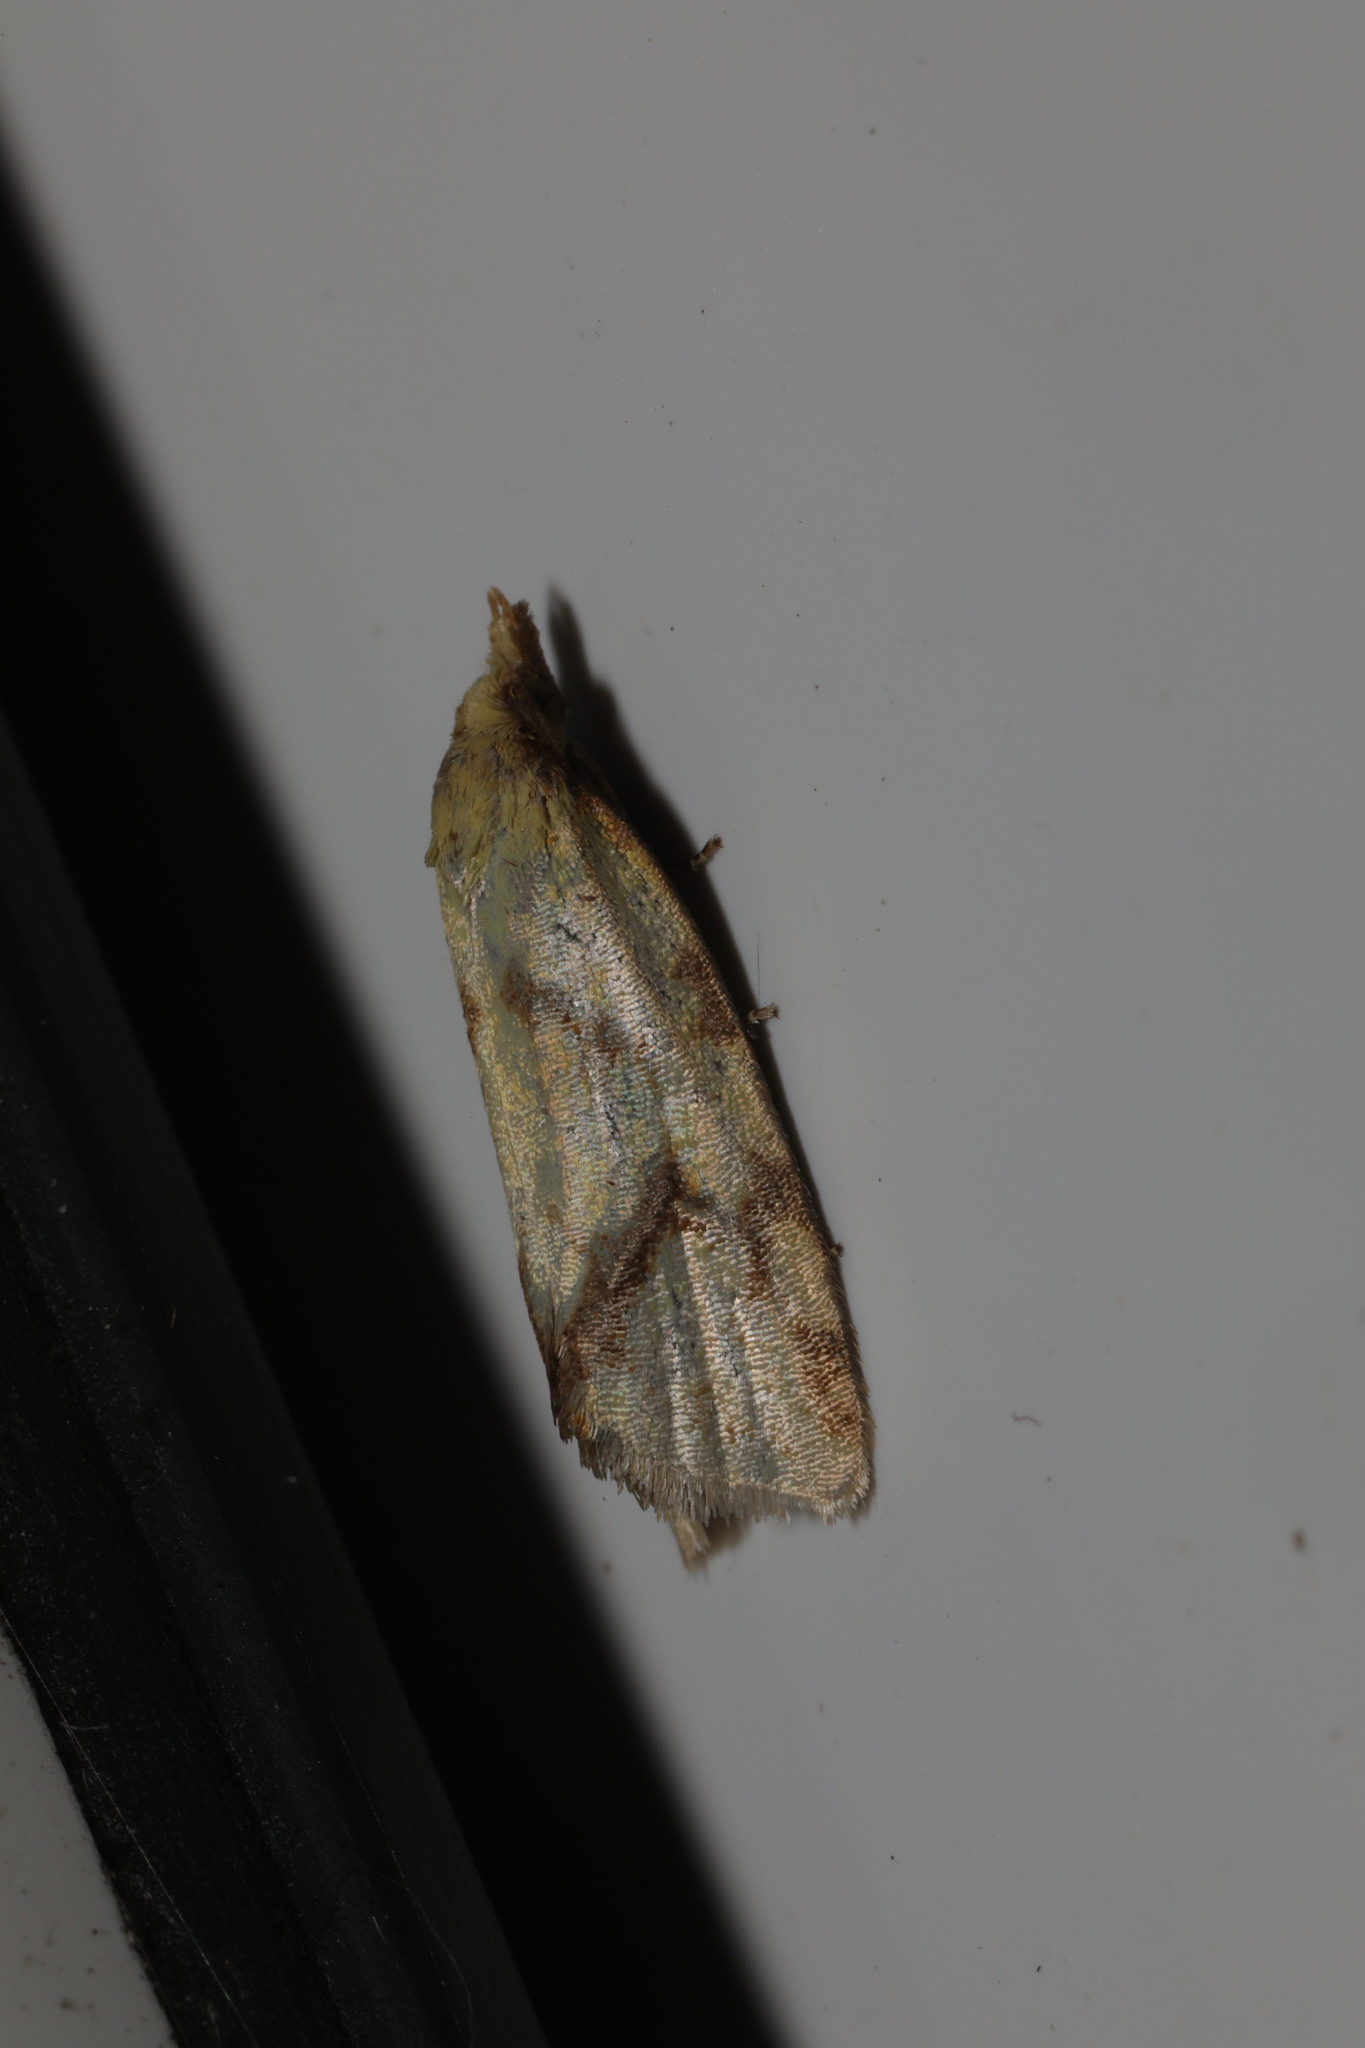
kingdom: Animalia
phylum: Arthropoda
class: Insecta
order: Lepidoptera
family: Tortricidae
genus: Agapeta
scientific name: Agapeta hamana
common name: Common yellow conch
